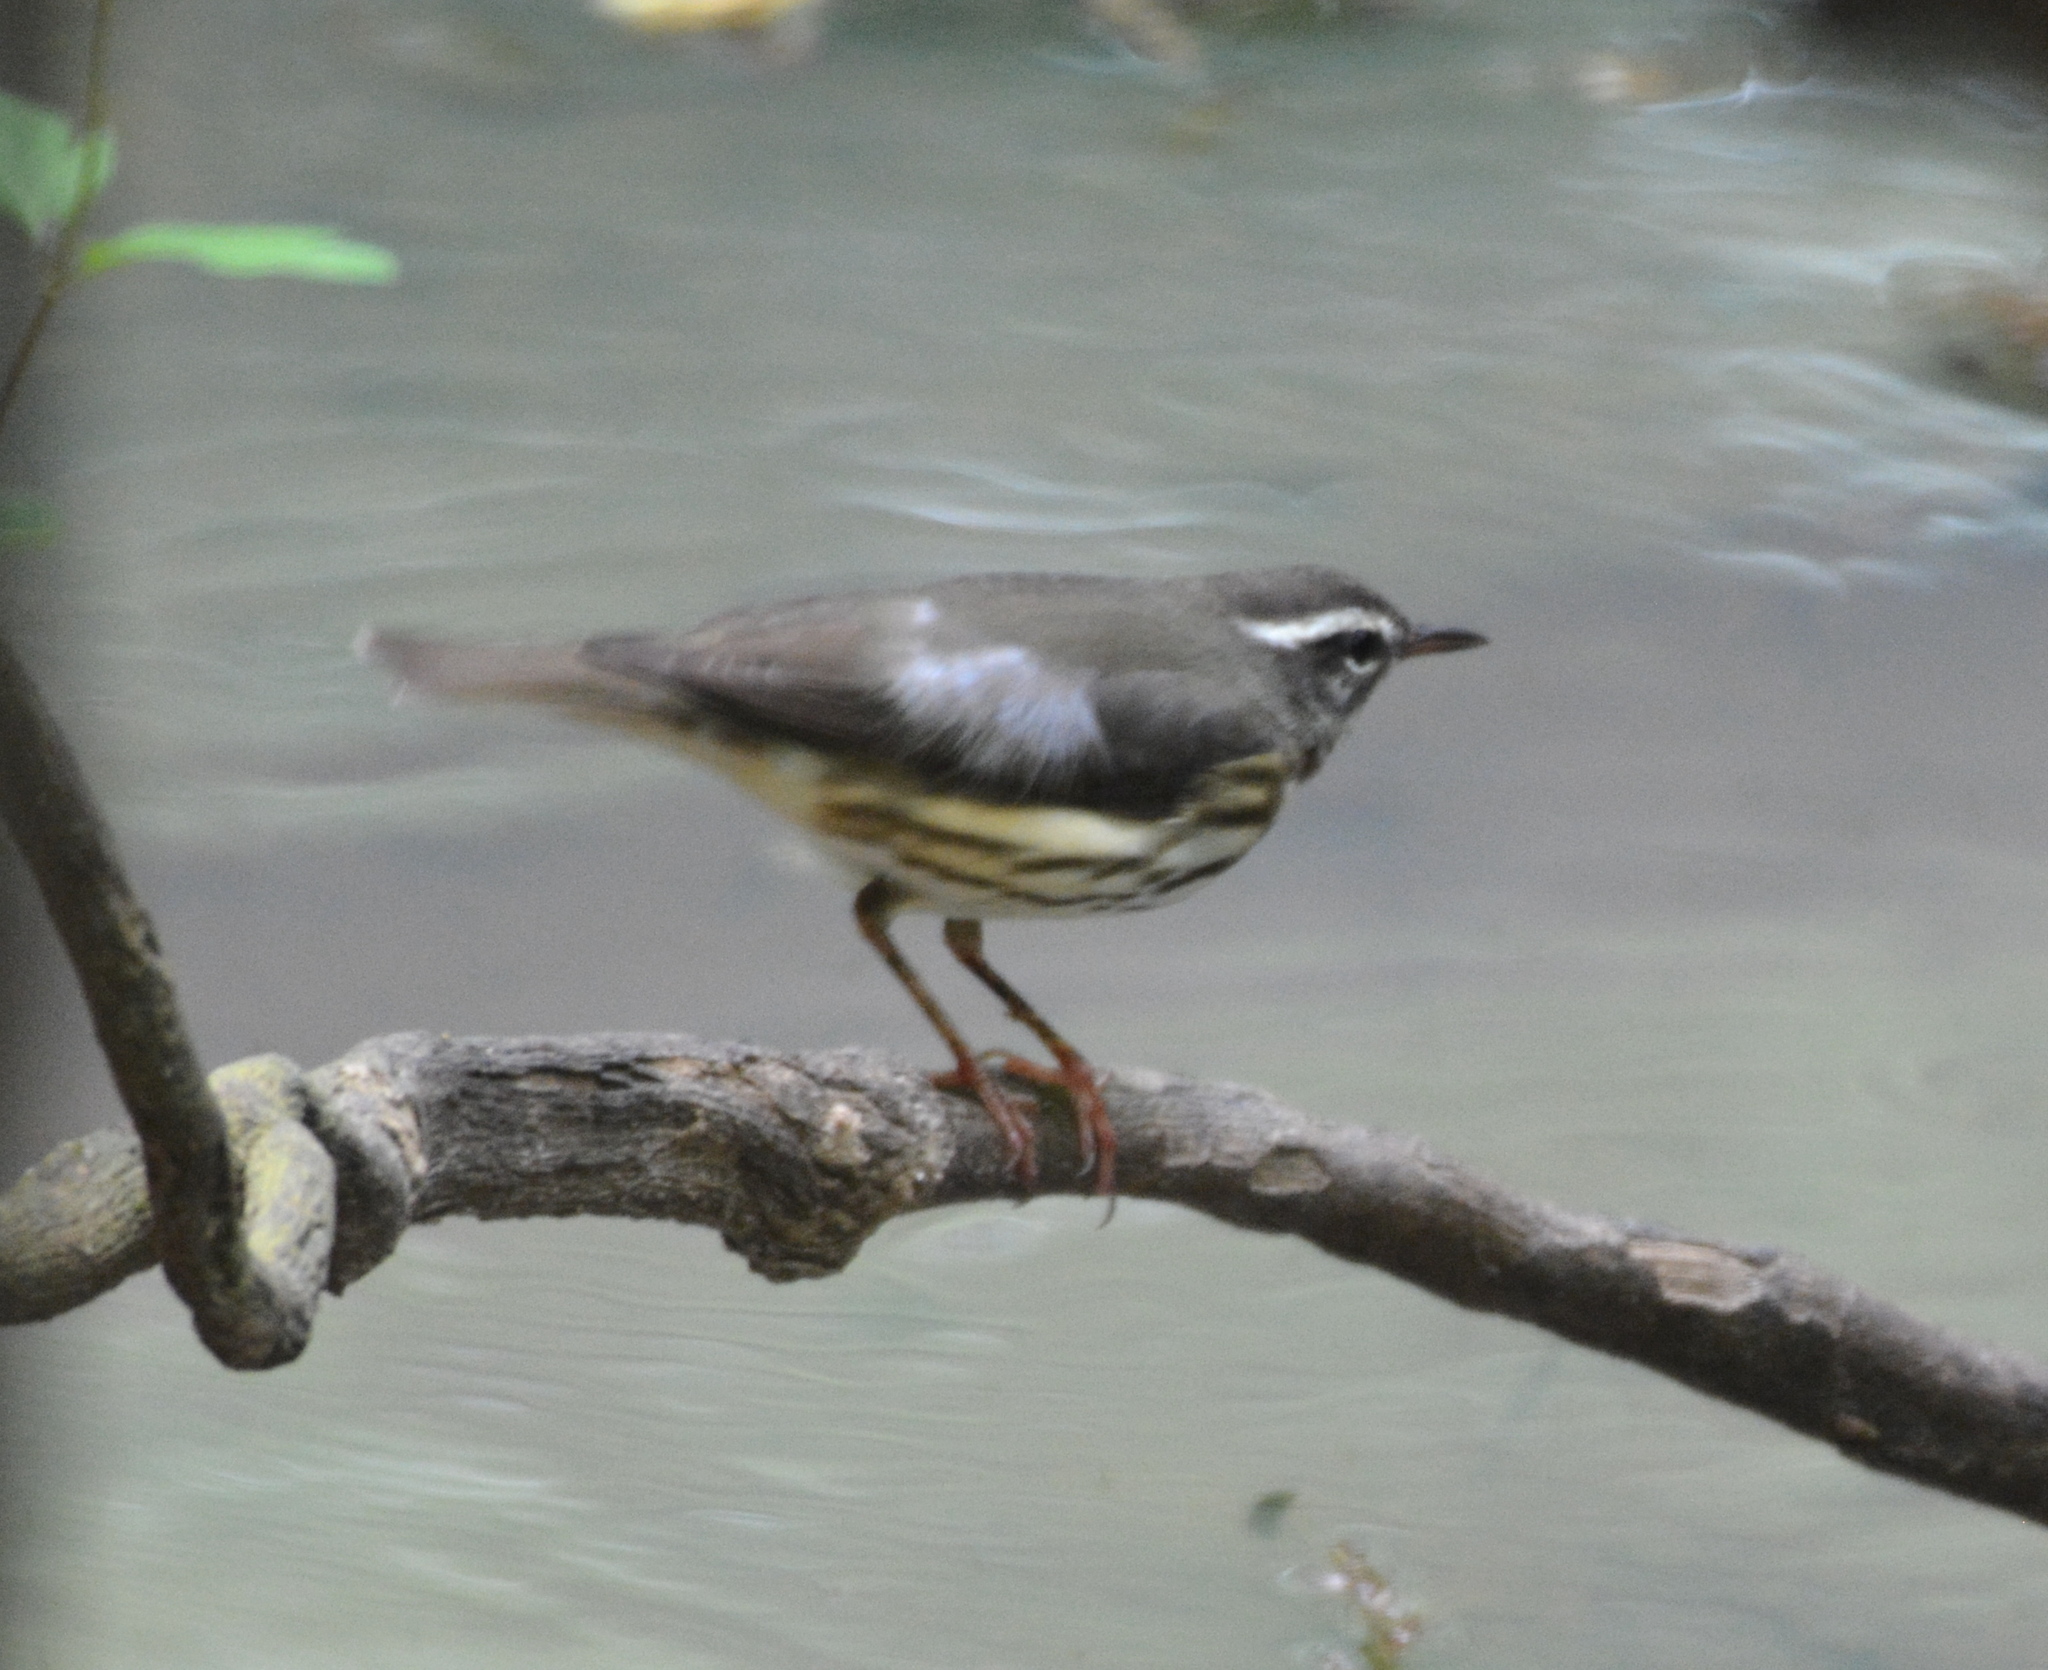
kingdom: Animalia
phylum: Chordata
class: Aves
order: Passeriformes
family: Parulidae
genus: Parkesia
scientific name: Parkesia motacilla
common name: Louisiana waterthrush
